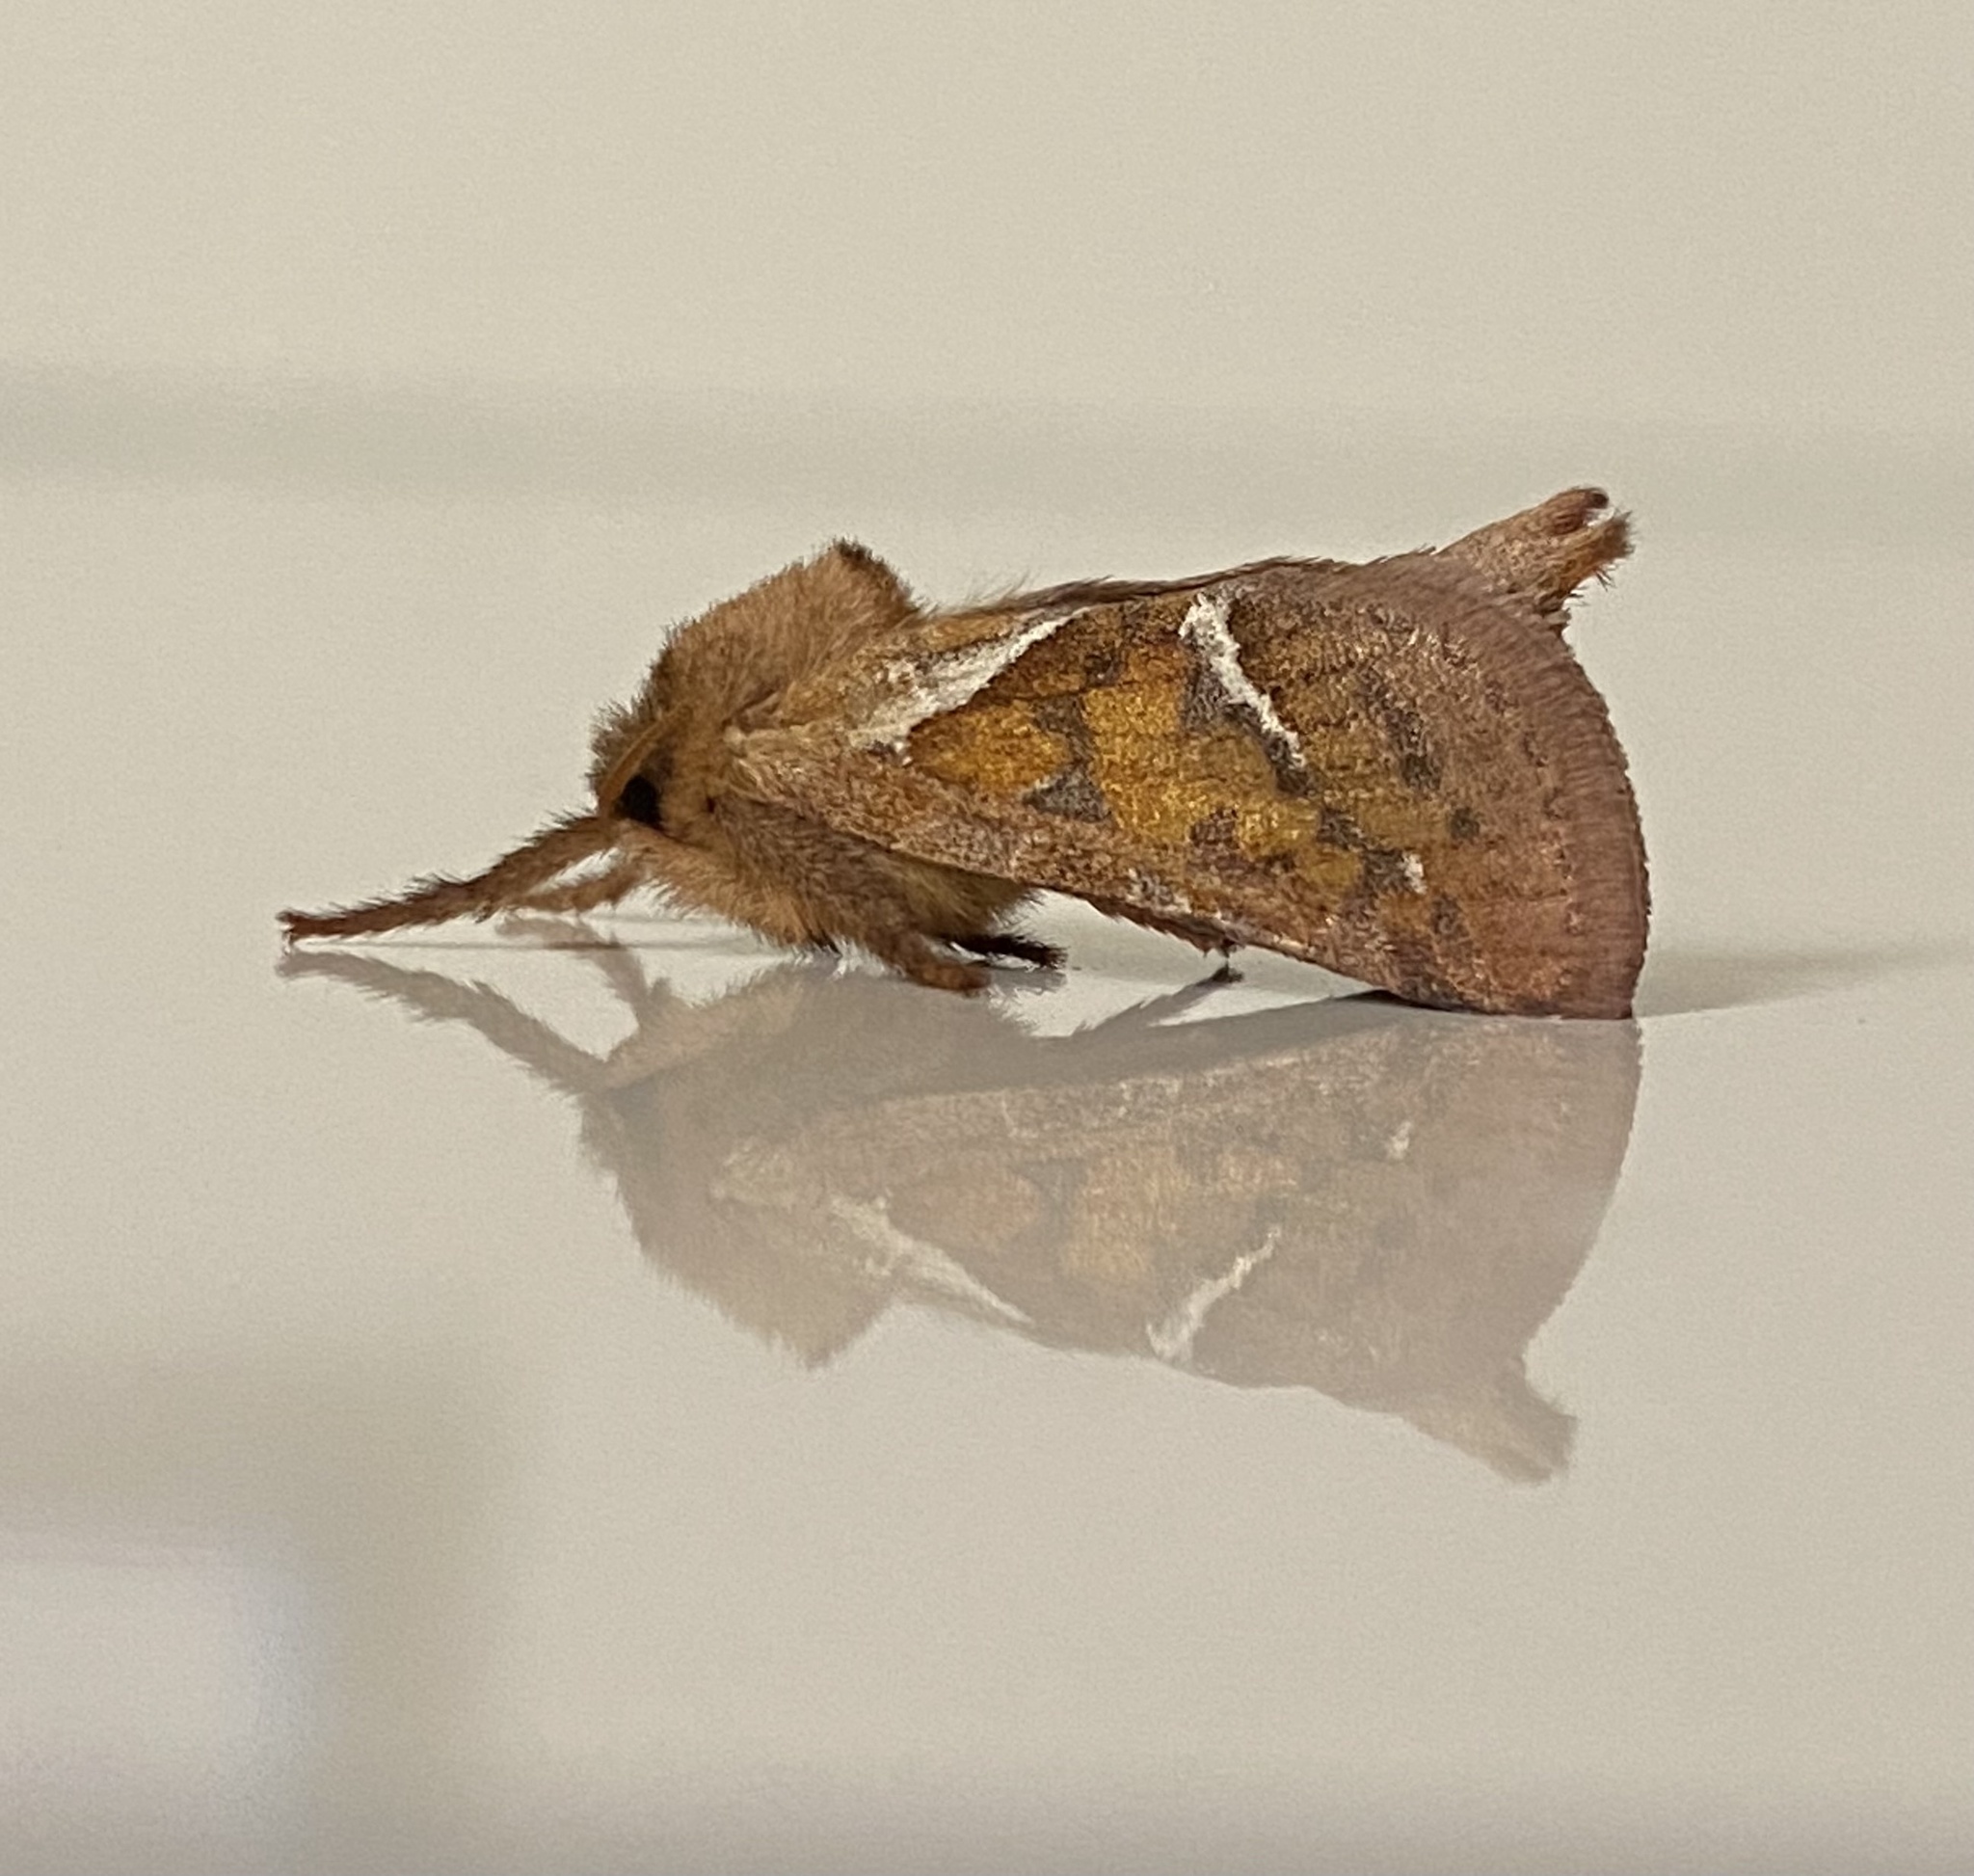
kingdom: Animalia
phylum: Arthropoda
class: Insecta
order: Lepidoptera
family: Hepialidae
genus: Triodia
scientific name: Triodia sylvina
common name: Orange swift
